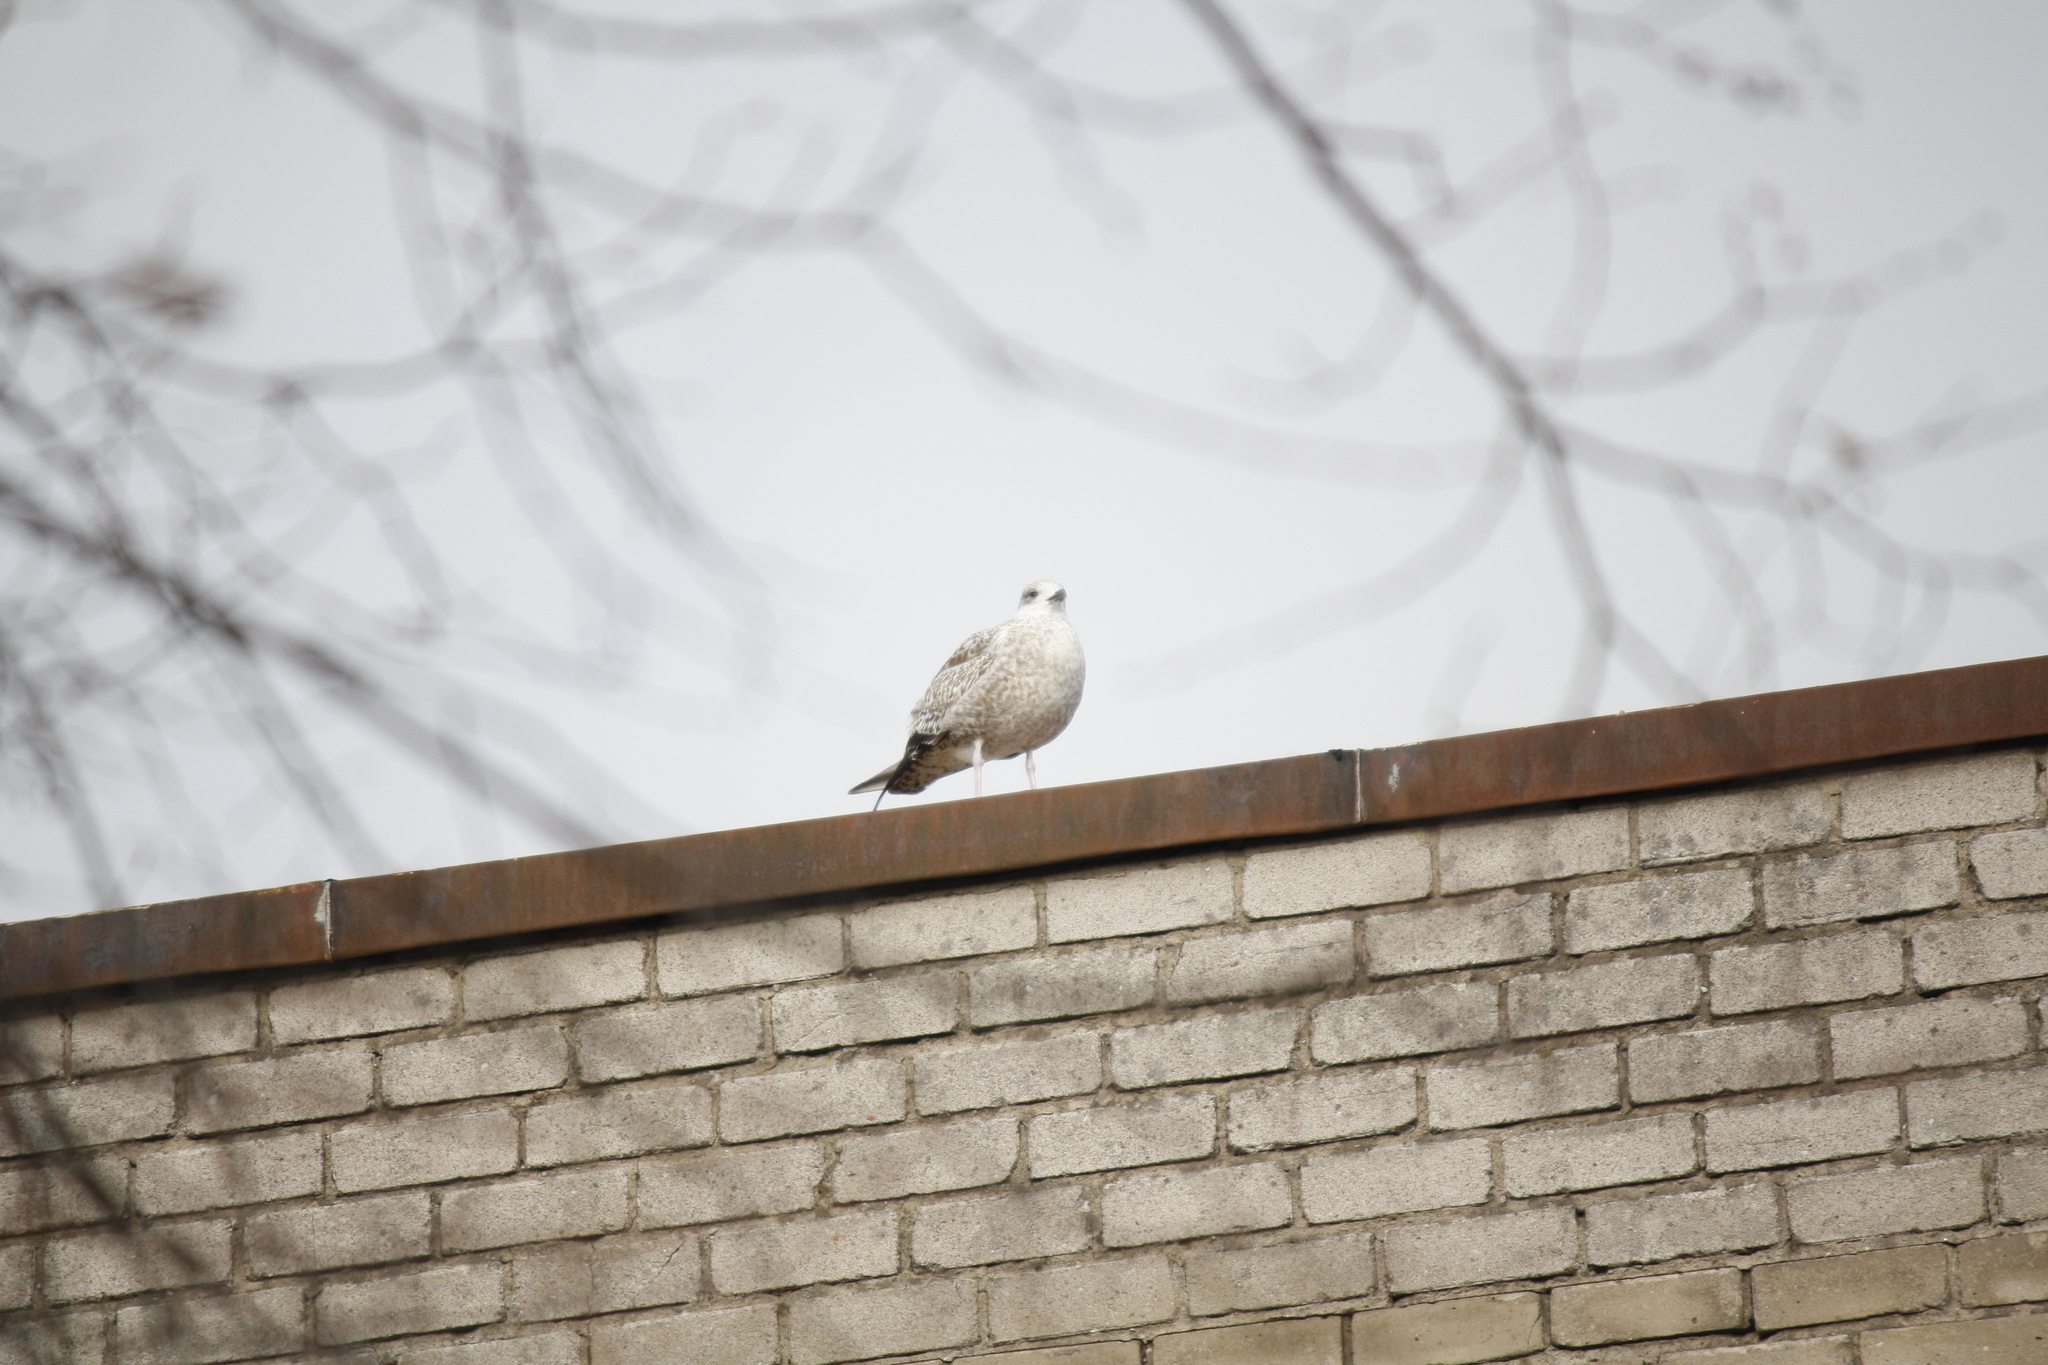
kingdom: Animalia
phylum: Chordata
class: Aves
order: Charadriiformes
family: Laridae
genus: Larus
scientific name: Larus argentatus
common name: Herring gull
